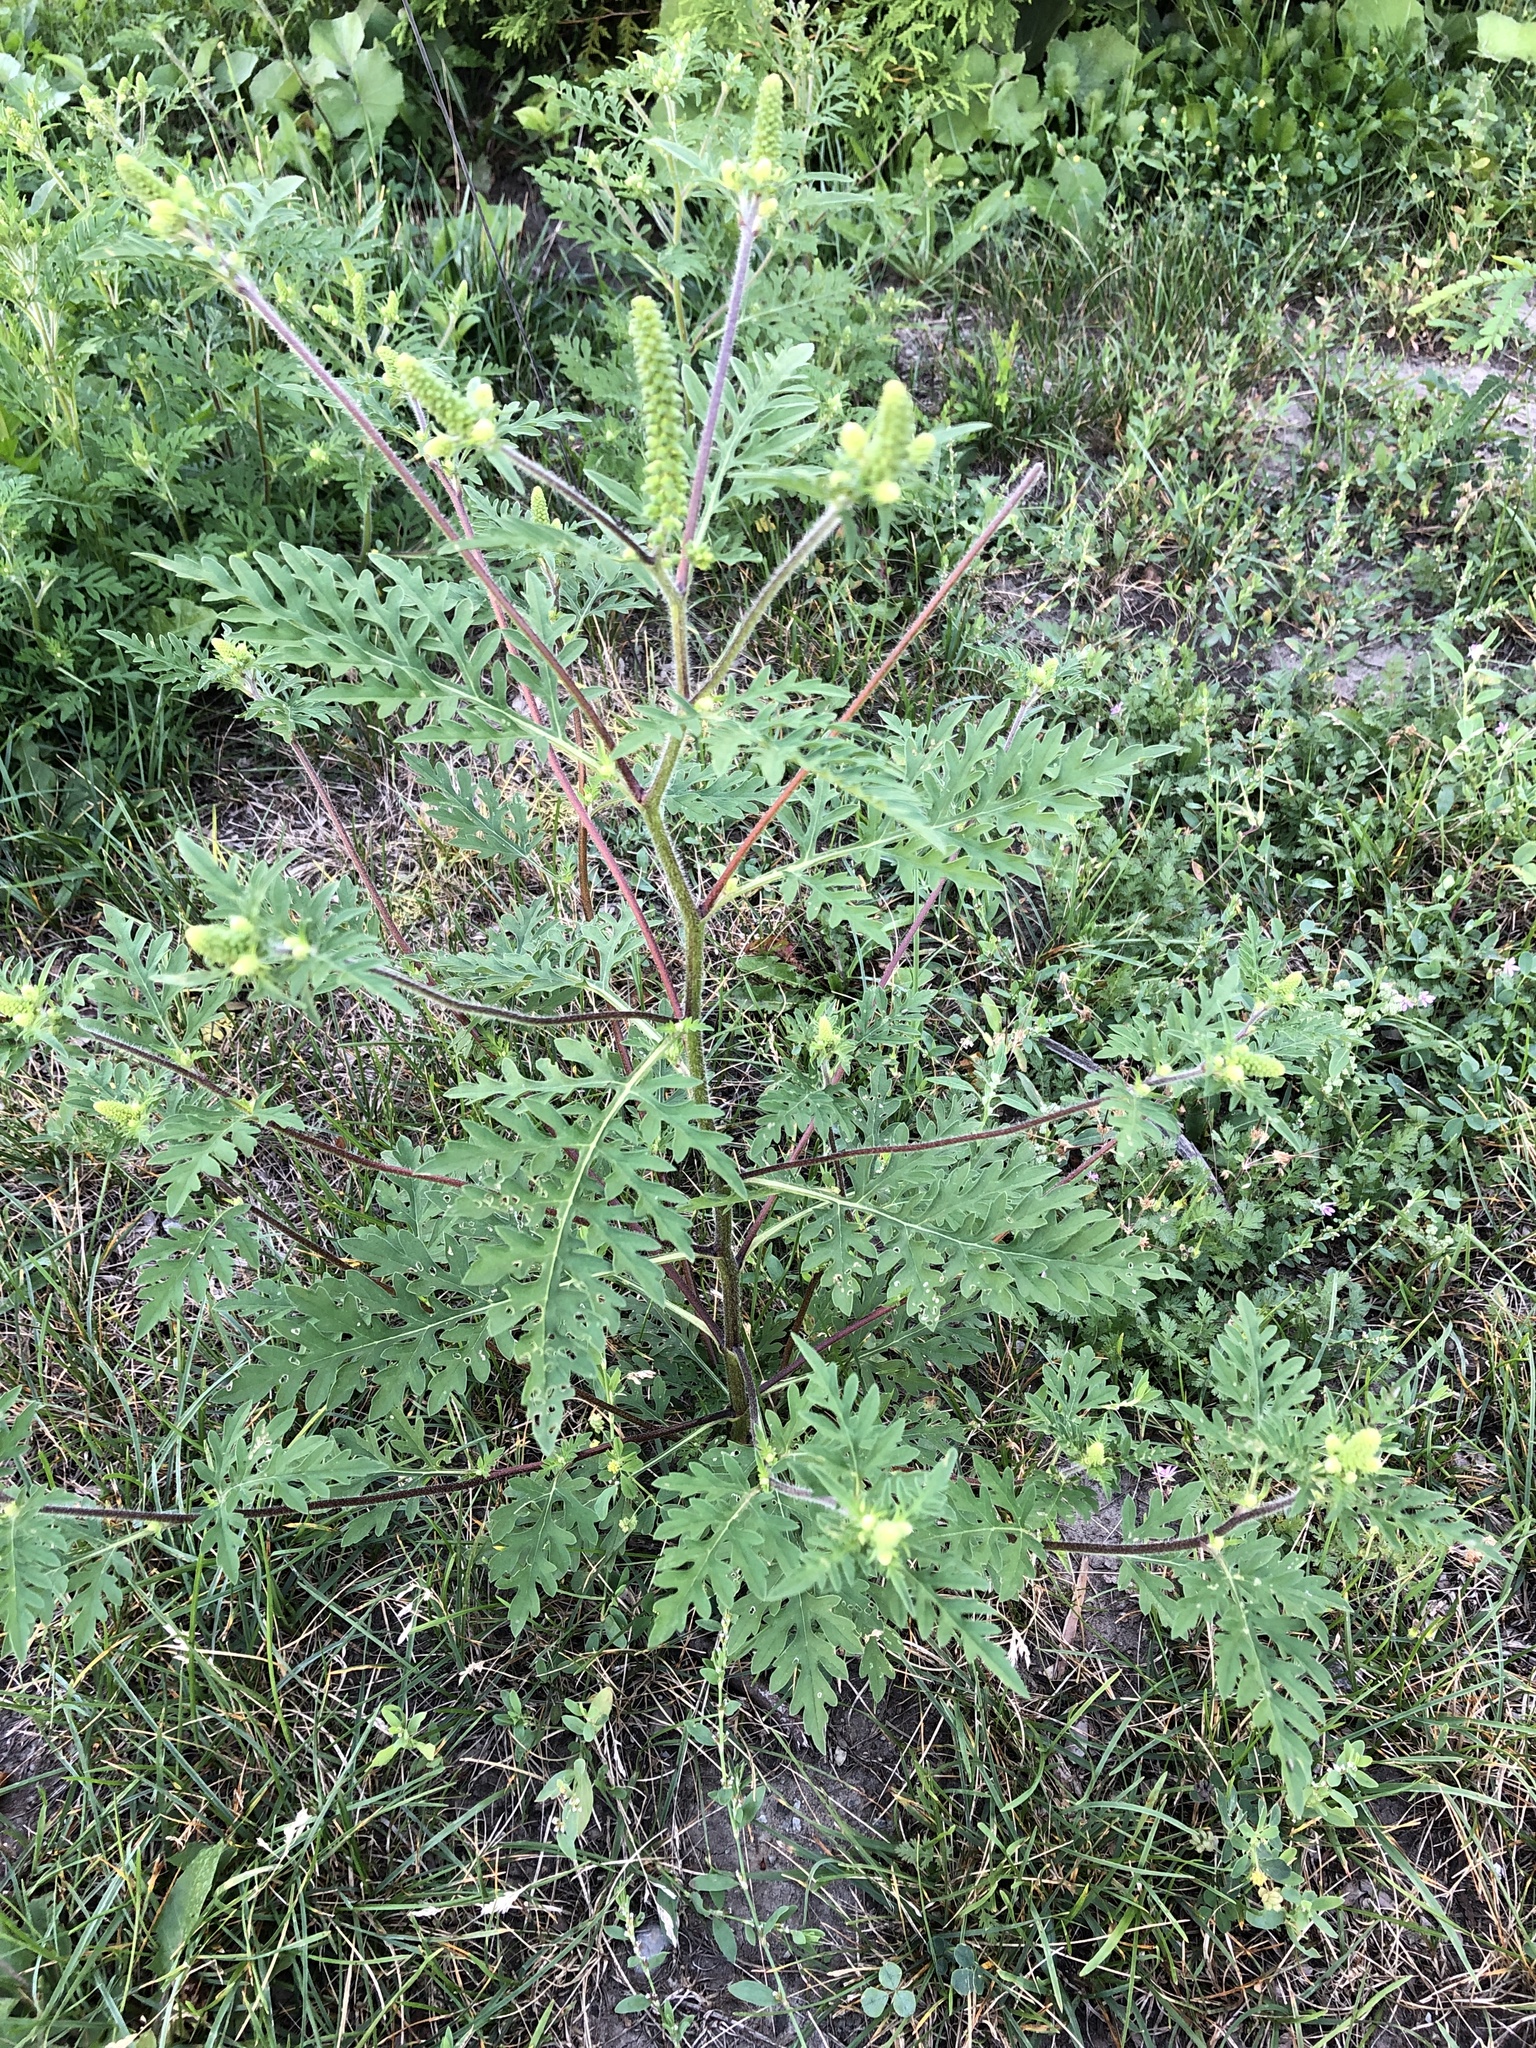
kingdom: Plantae
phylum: Tracheophyta
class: Magnoliopsida
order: Asterales
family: Asteraceae
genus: Ambrosia
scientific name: Ambrosia artemisiifolia
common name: Annual ragweed
